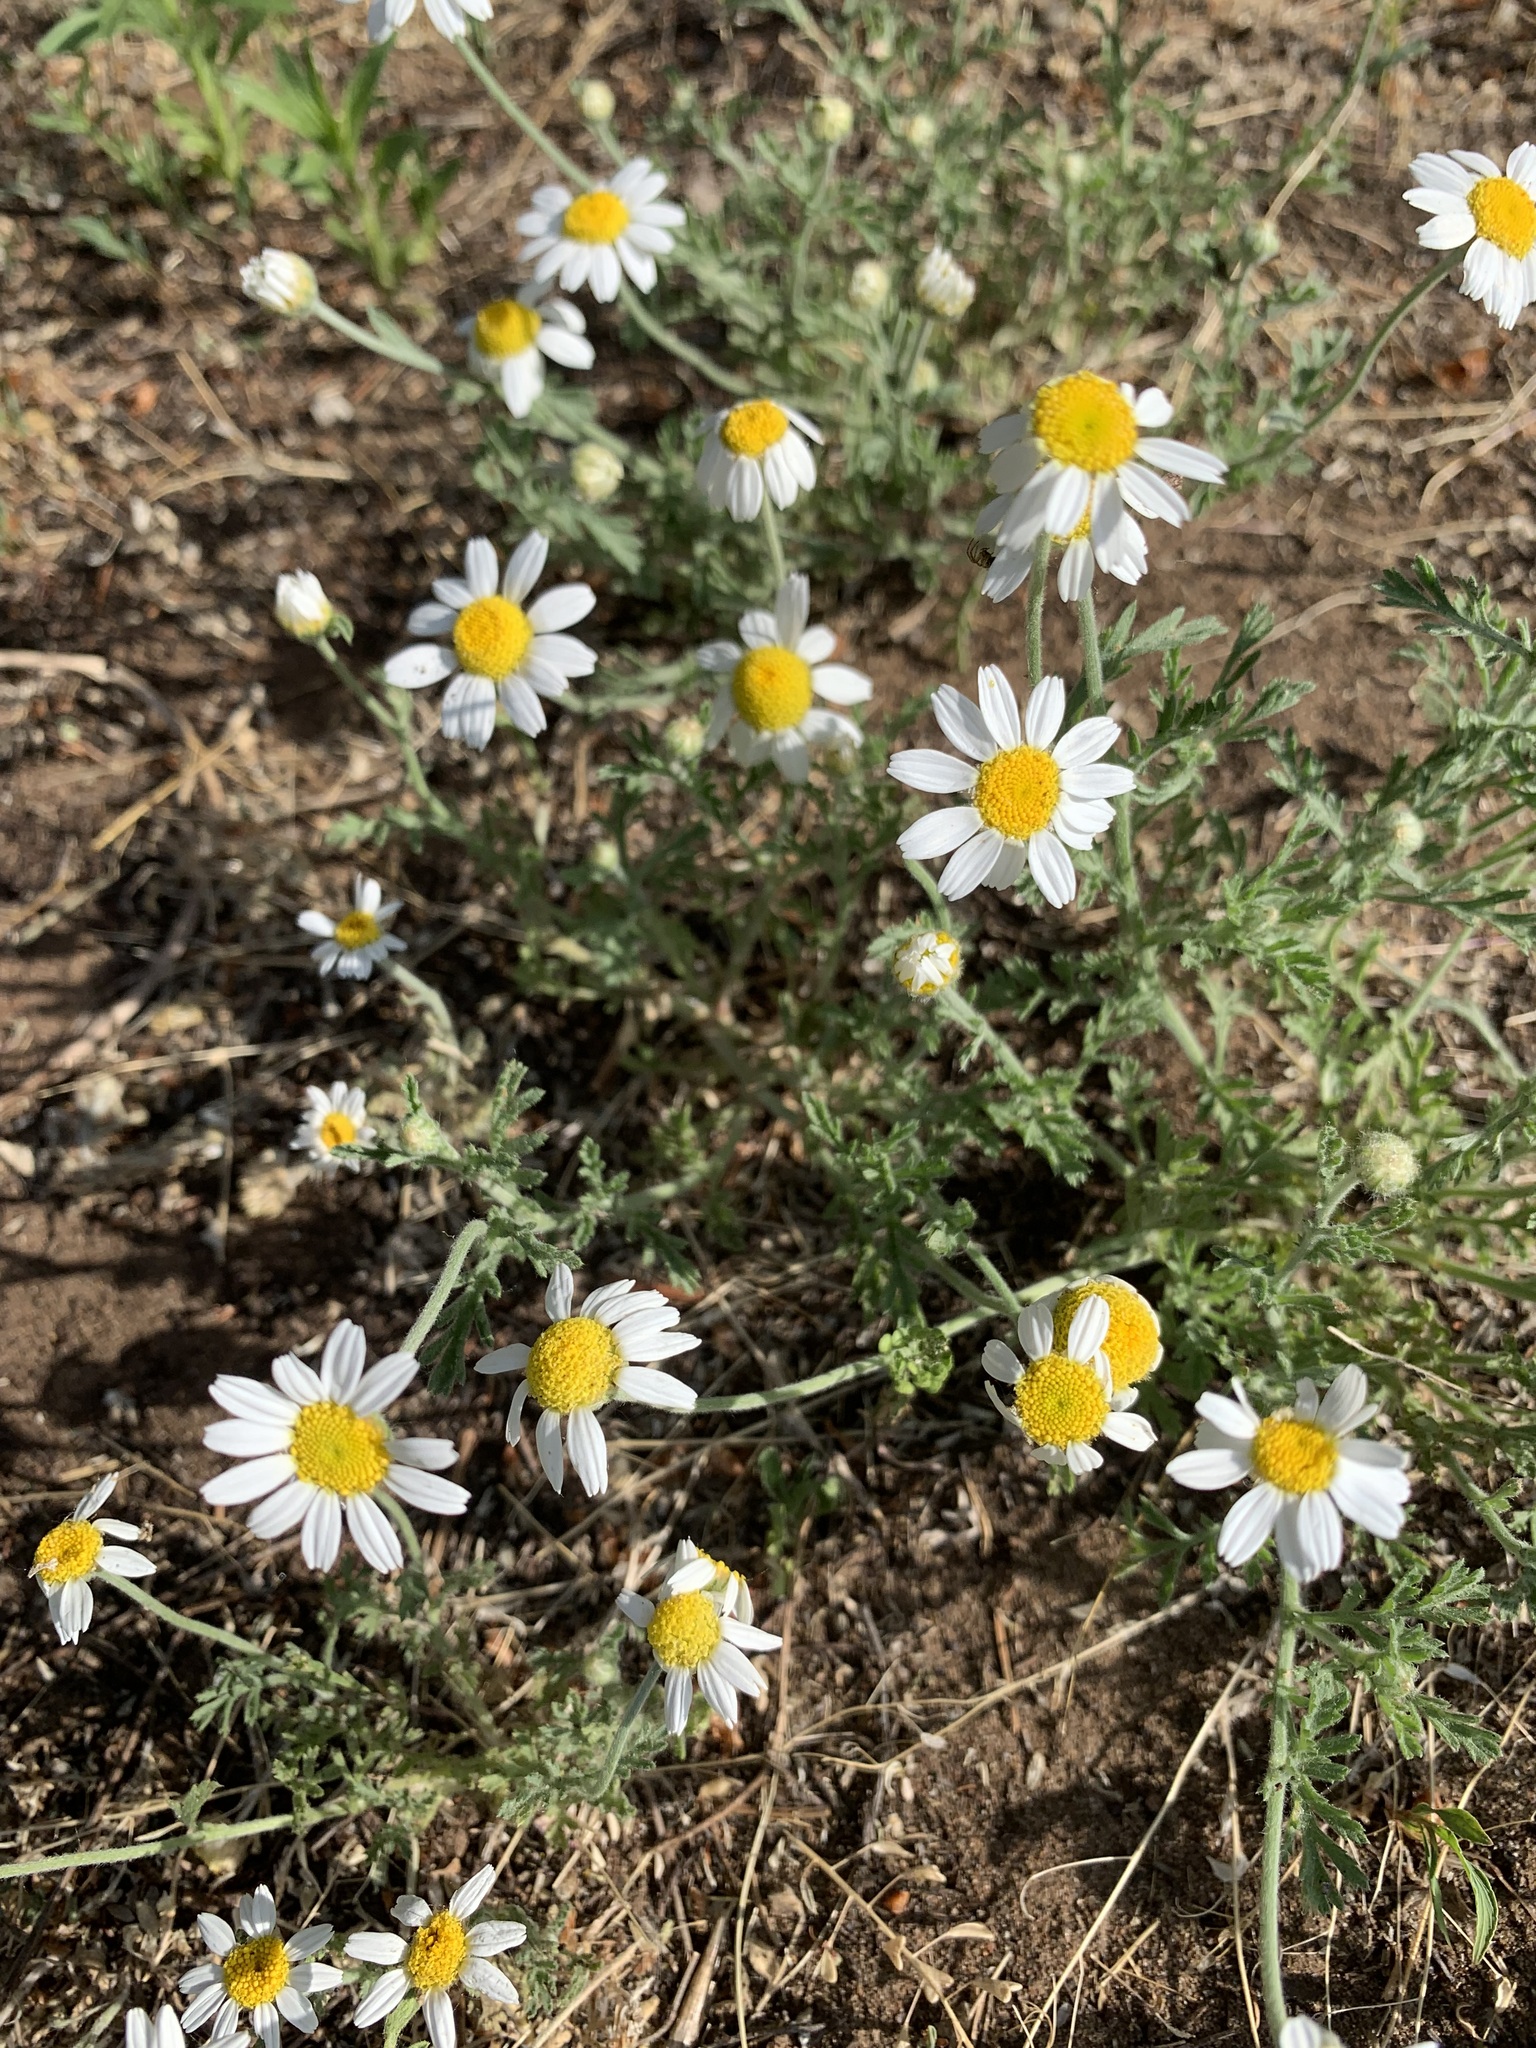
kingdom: Plantae
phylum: Tracheophyta
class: Magnoliopsida
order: Asterales
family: Asteraceae
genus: Anthemis
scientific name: Anthemis ruthenica
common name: Eastern chamomile
